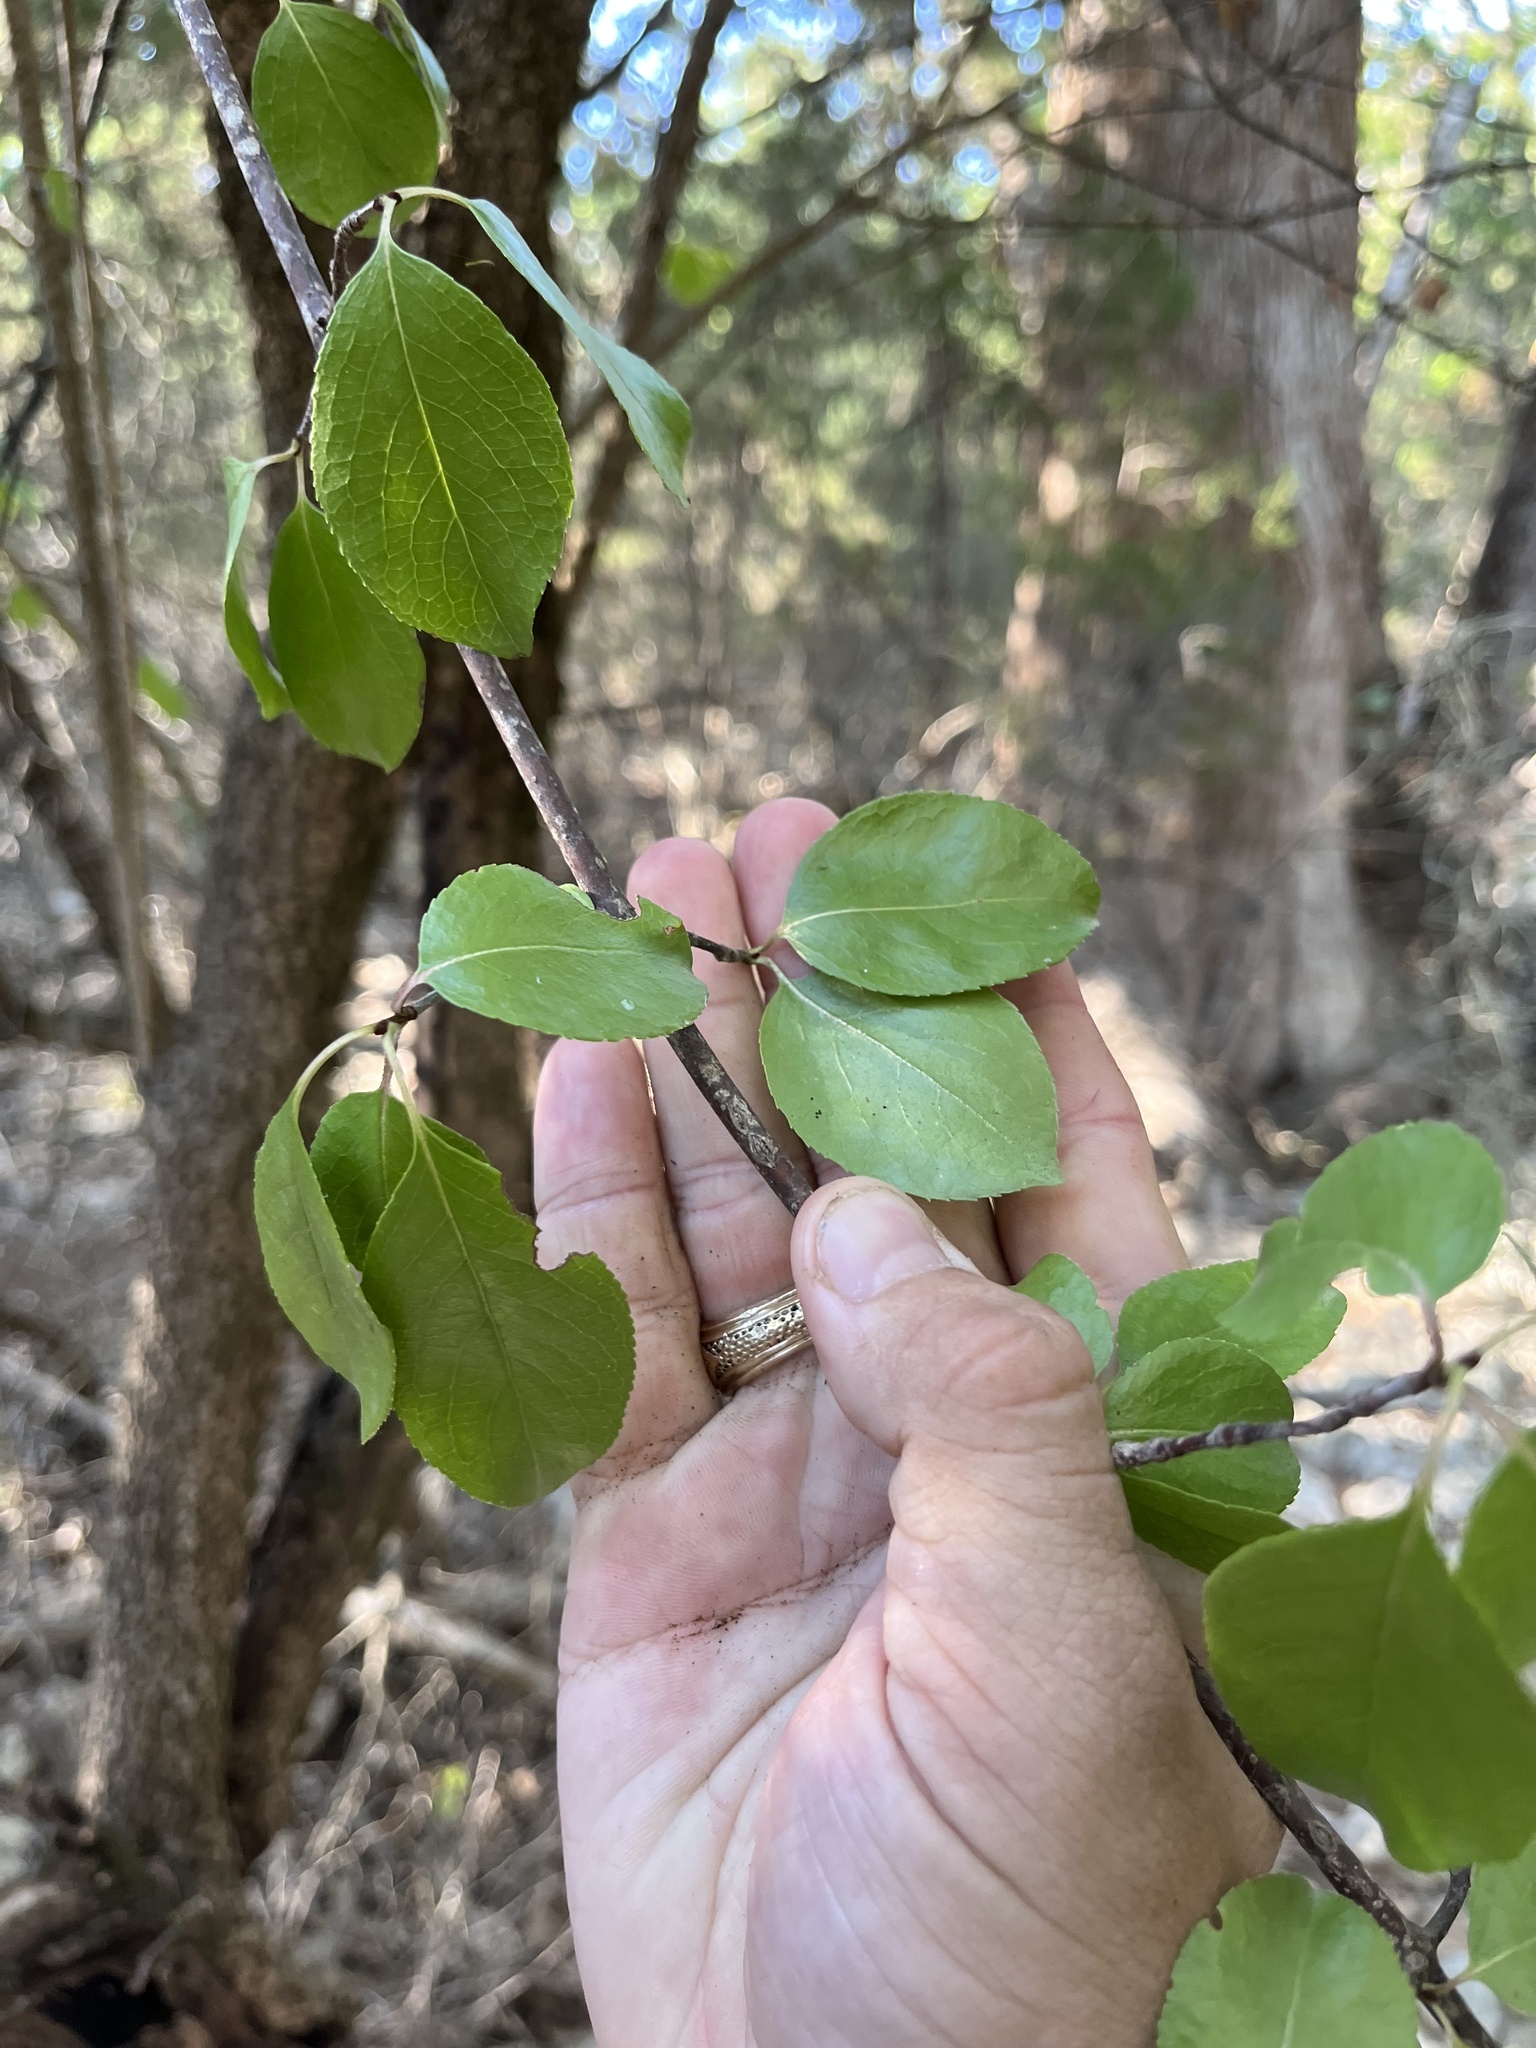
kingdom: Plantae
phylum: Tracheophyta
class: Magnoliopsida
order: Dipsacales
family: Viburnaceae
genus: Viburnum
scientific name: Viburnum rufidulum
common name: Blue haw
